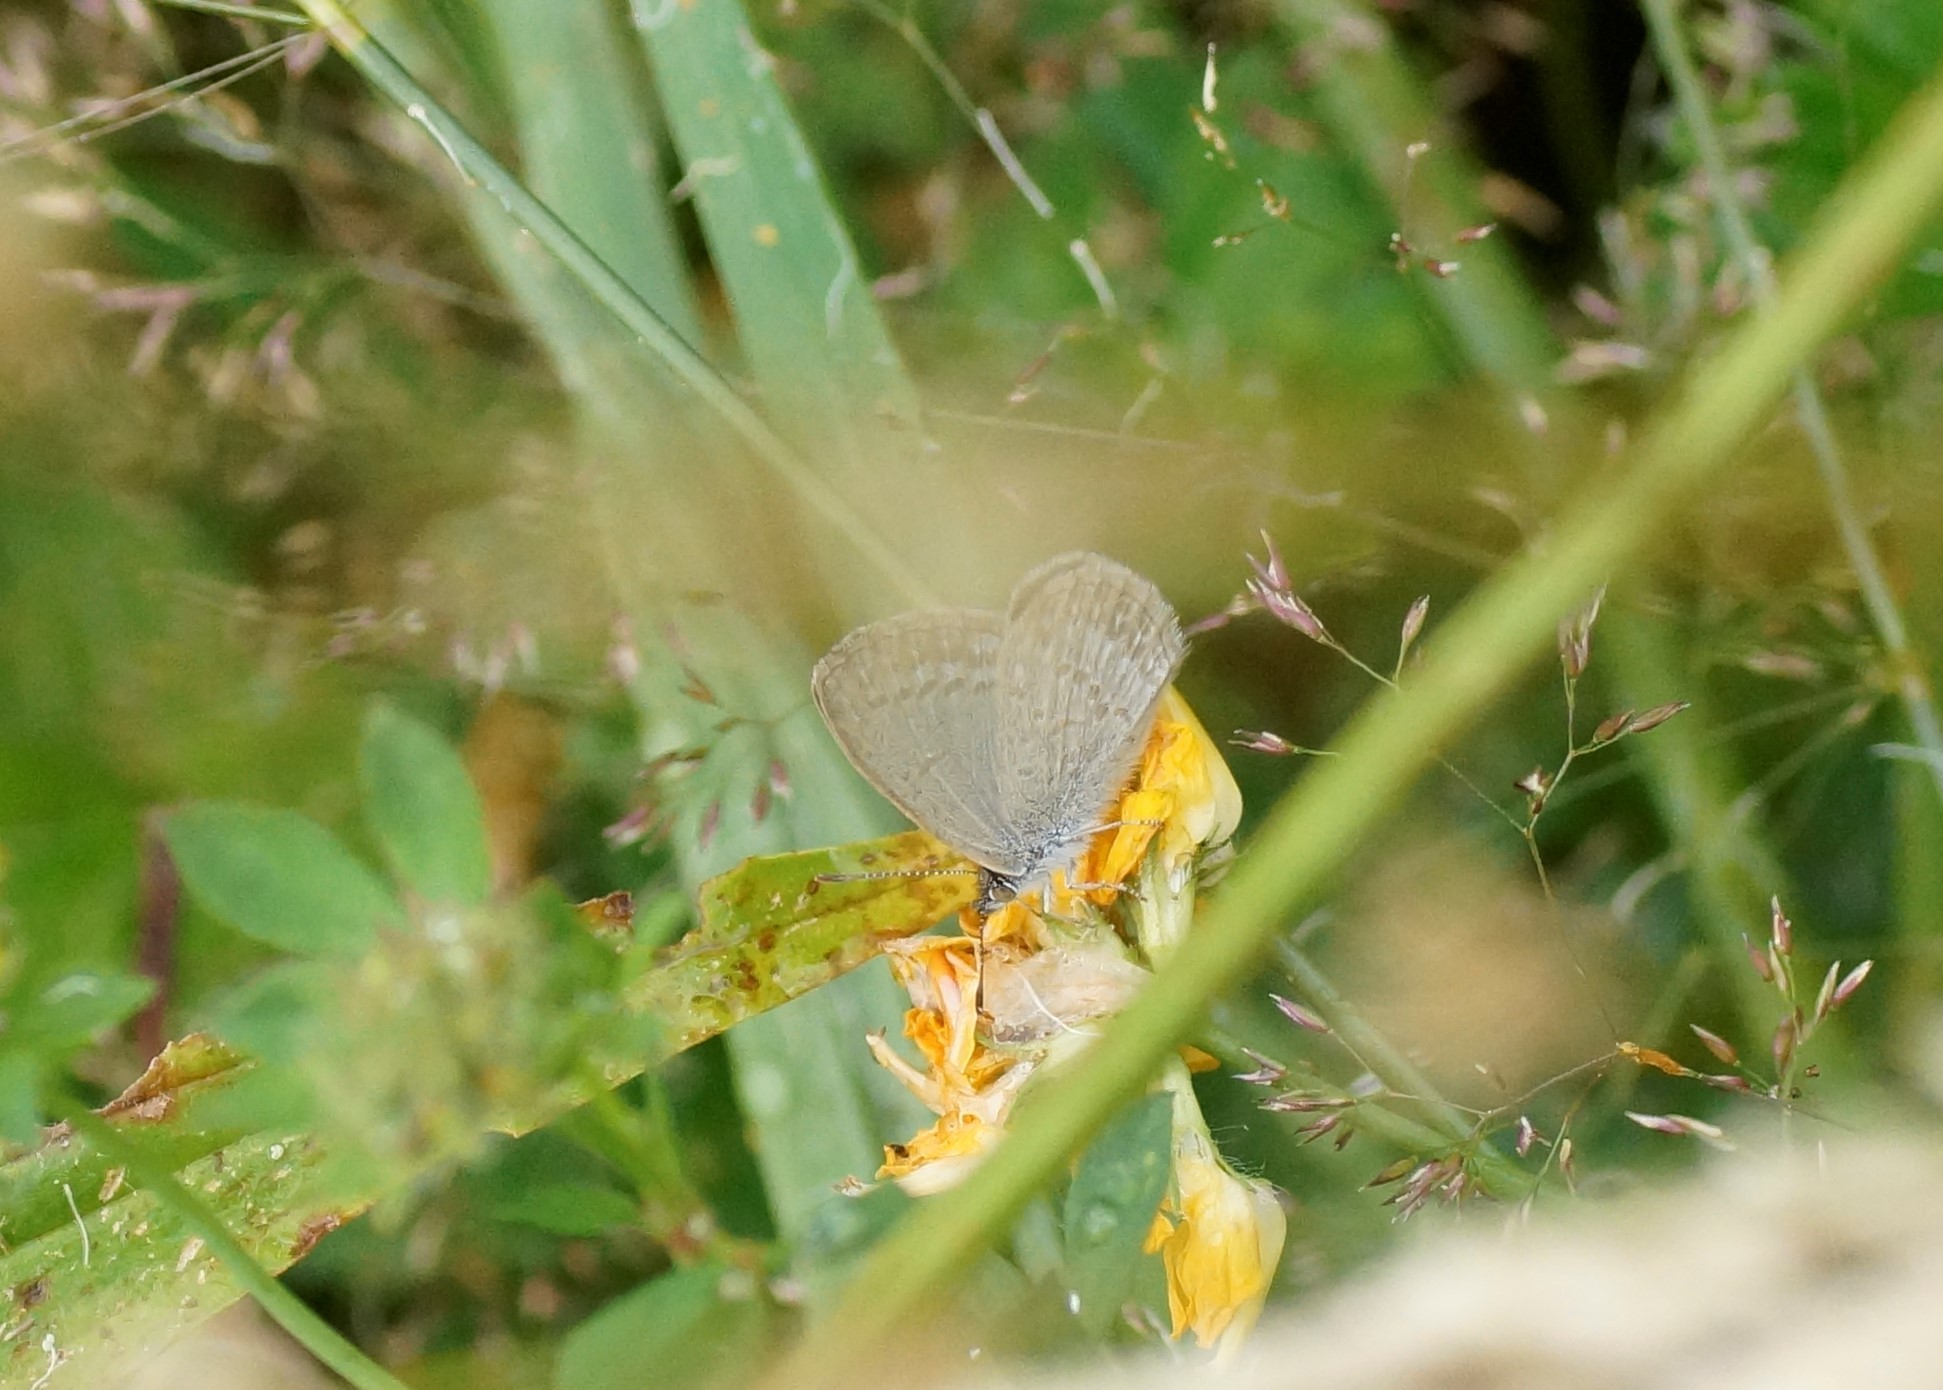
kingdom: Animalia
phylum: Arthropoda
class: Insecta
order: Lepidoptera
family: Lycaenidae
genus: Zizina
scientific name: Zizina labradus
